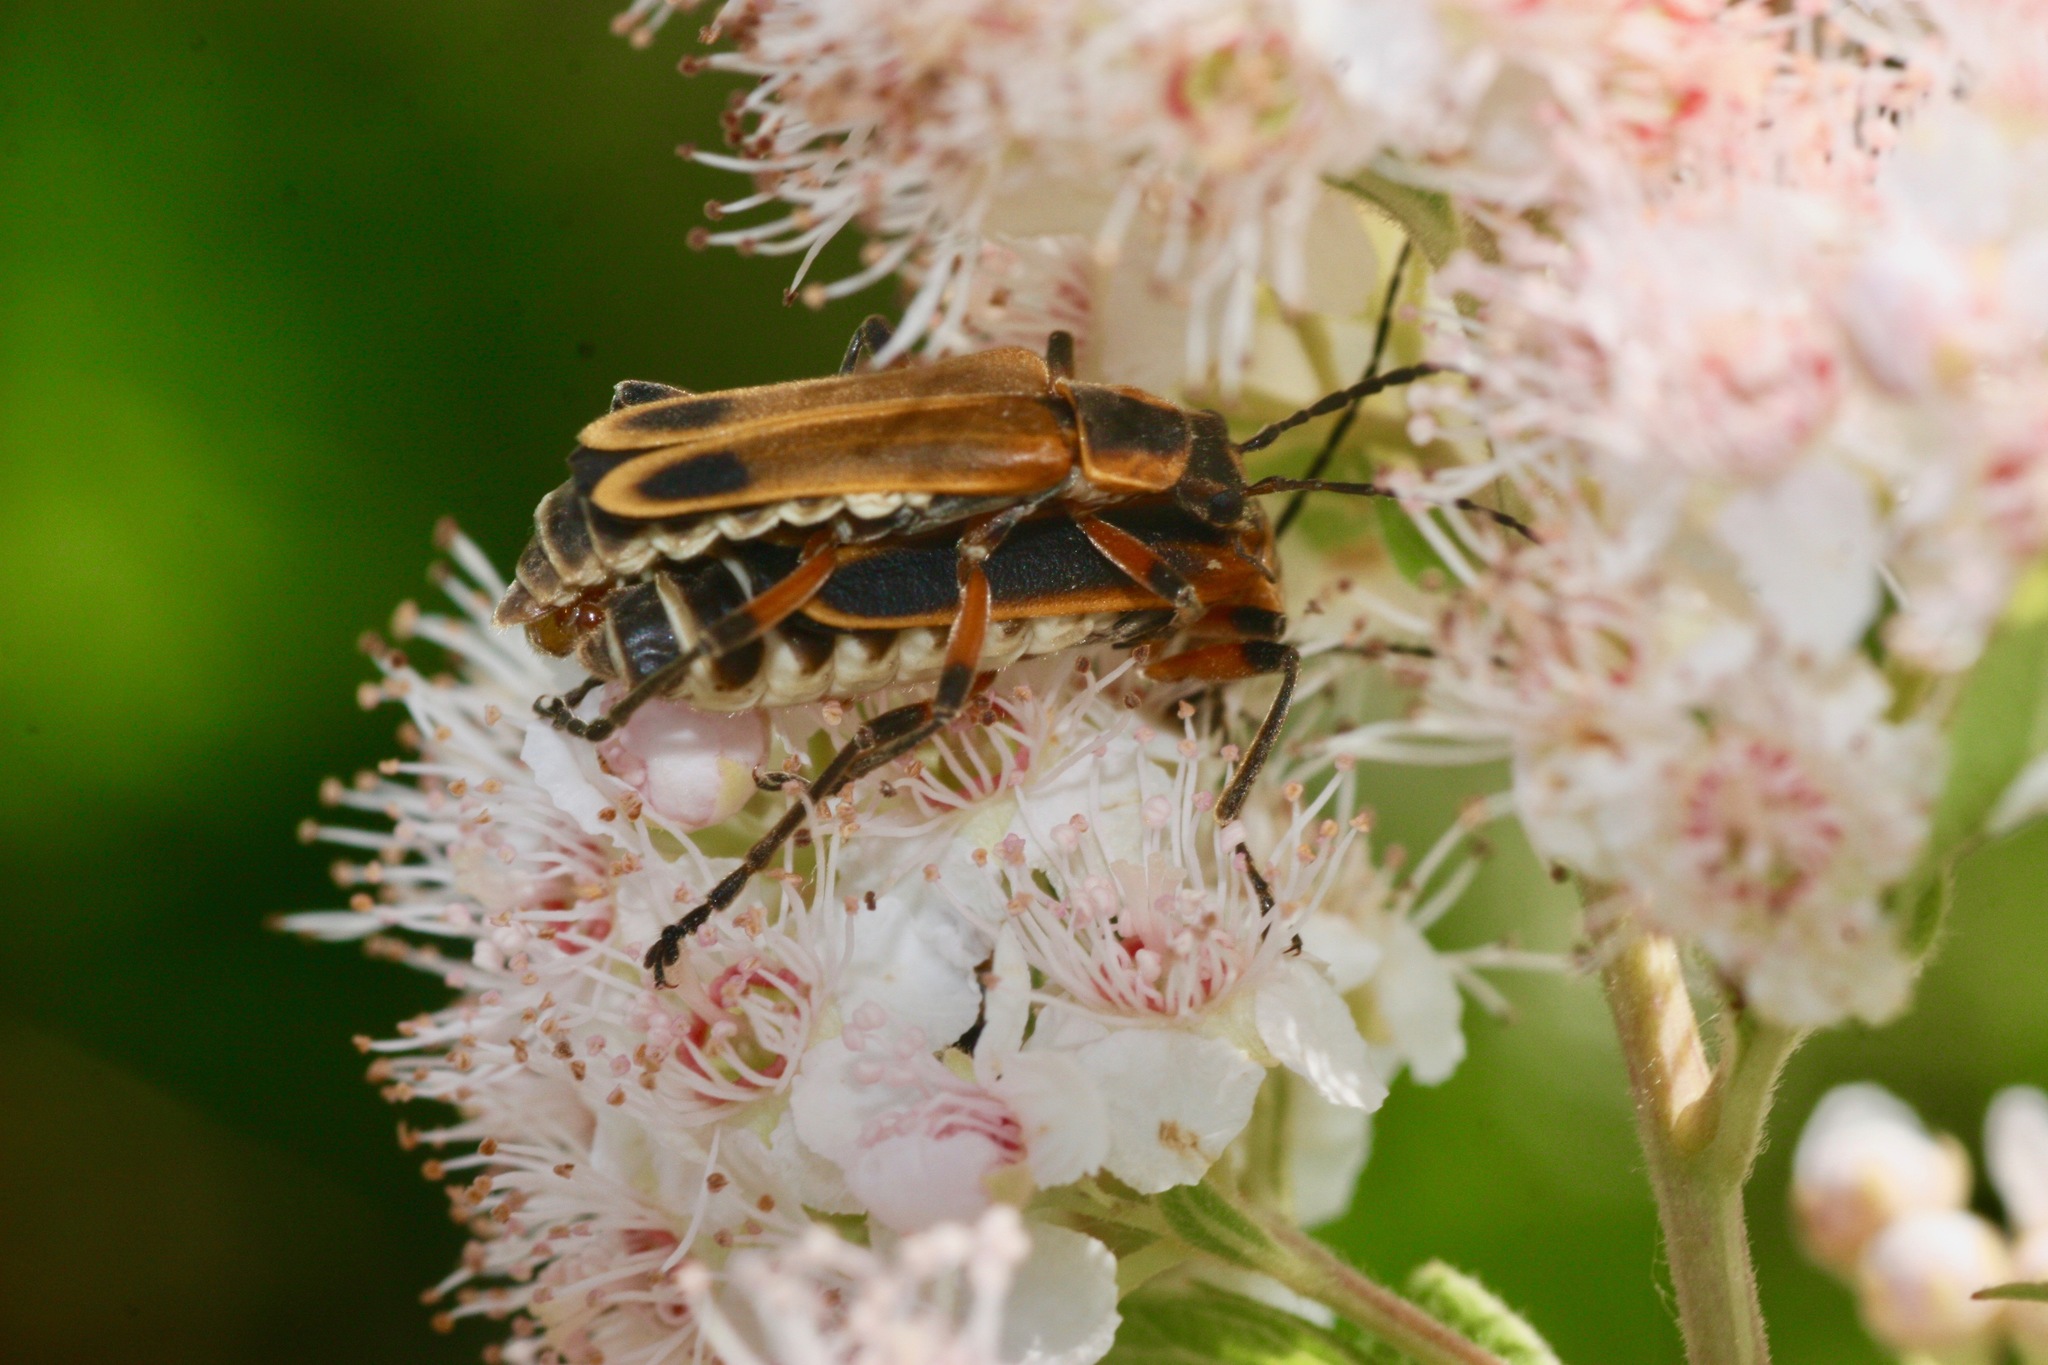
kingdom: Animalia
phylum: Arthropoda
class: Insecta
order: Coleoptera
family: Cantharidae
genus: Chauliognathus
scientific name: Chauliognathus marginatus
